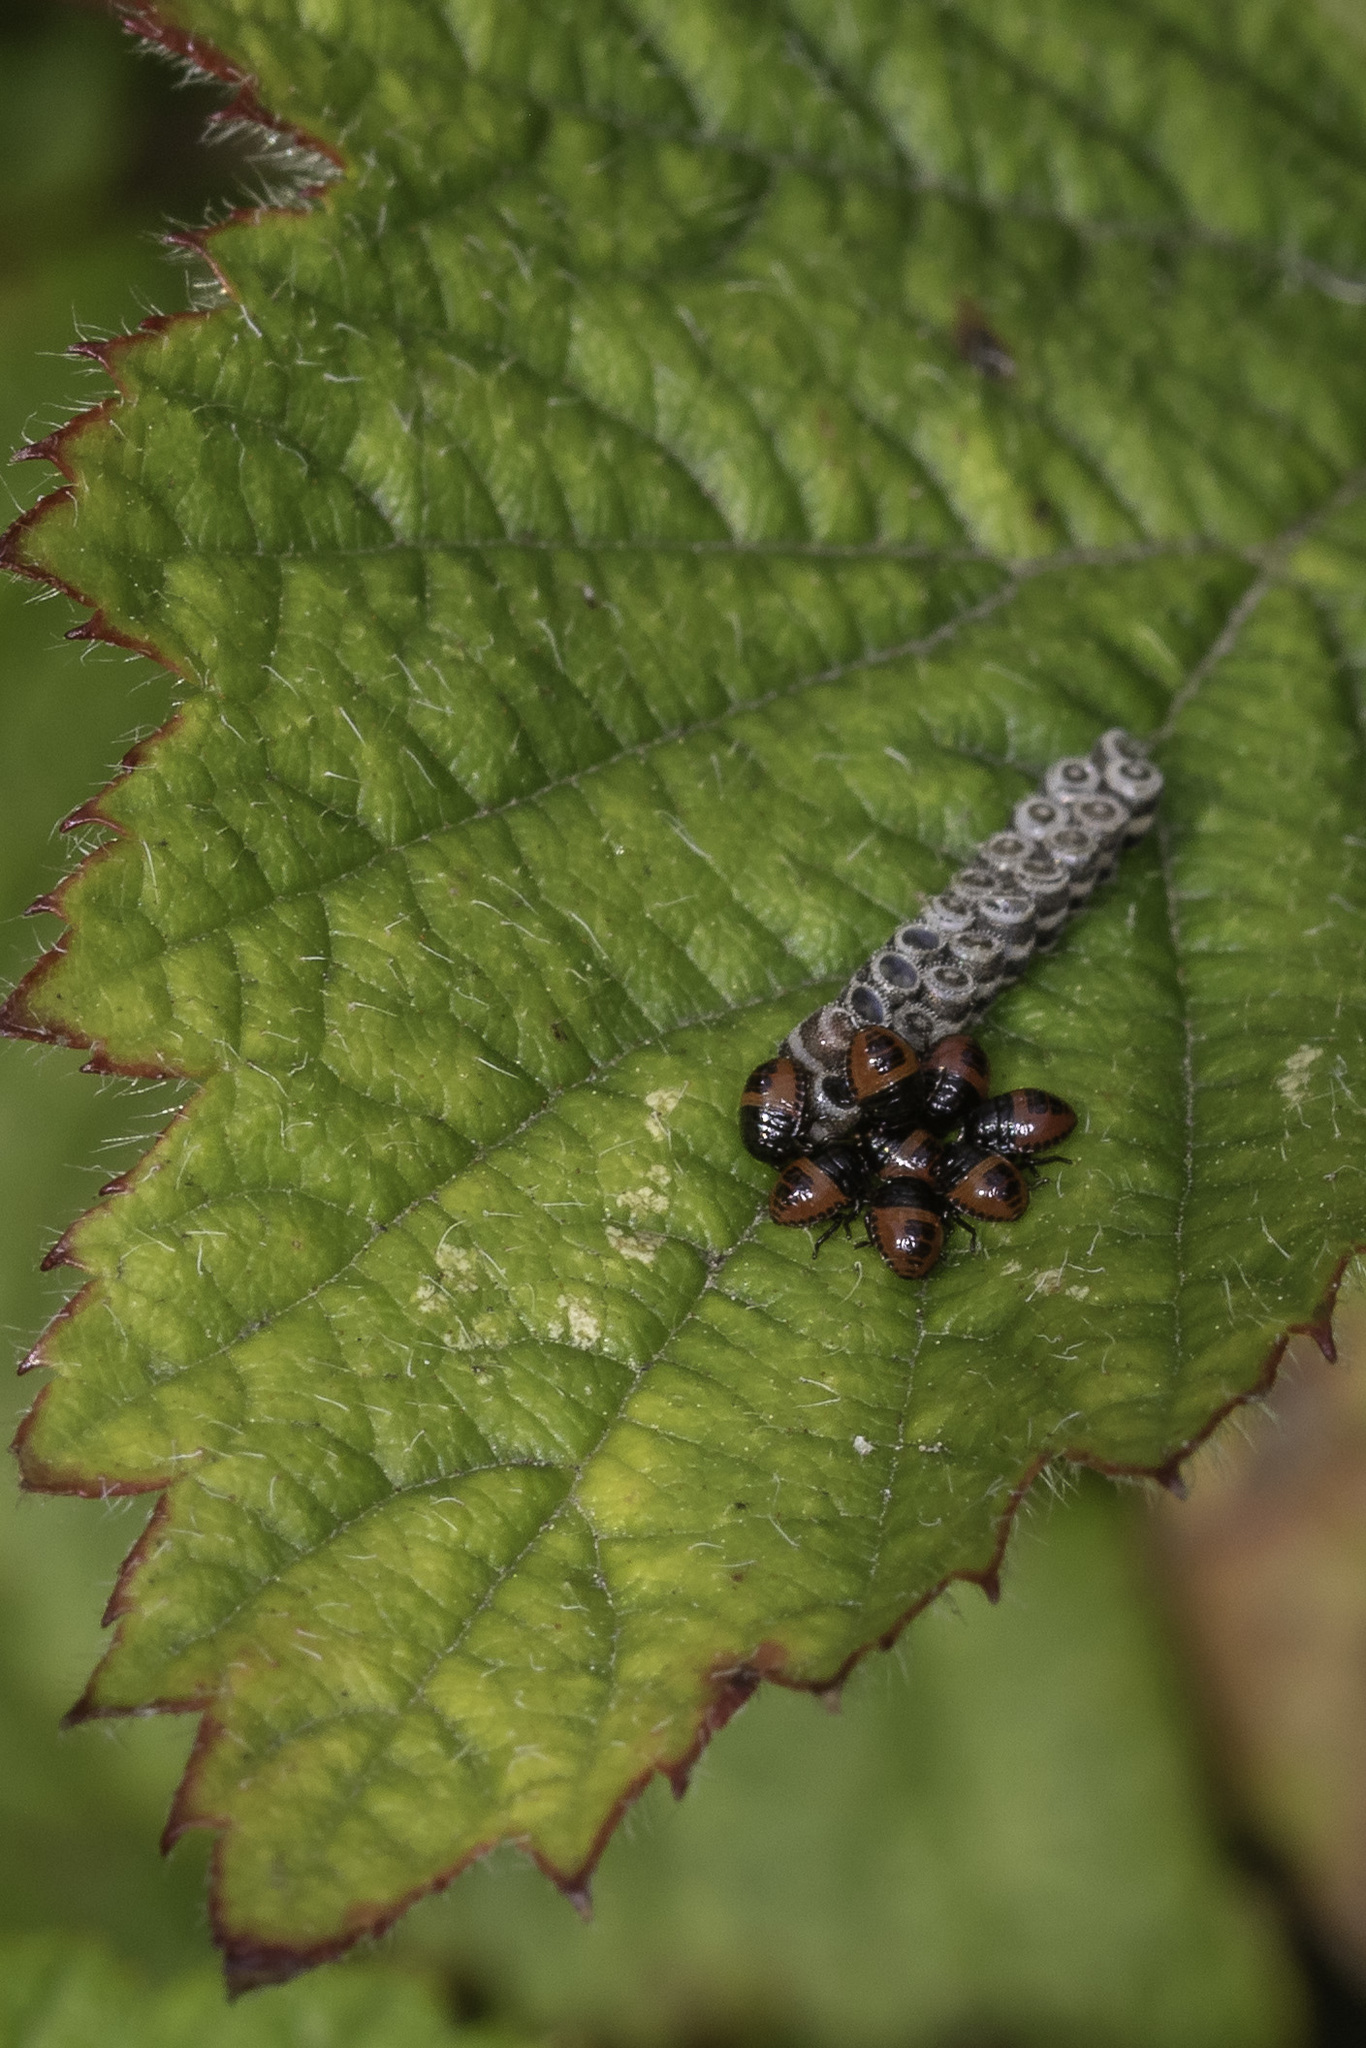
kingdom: Animalia
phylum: Arthropoda
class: Insecta
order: Hemiptera
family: Pentatomidae
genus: Piezodorus
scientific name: Piezodorus lituratus
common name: Stink bug
